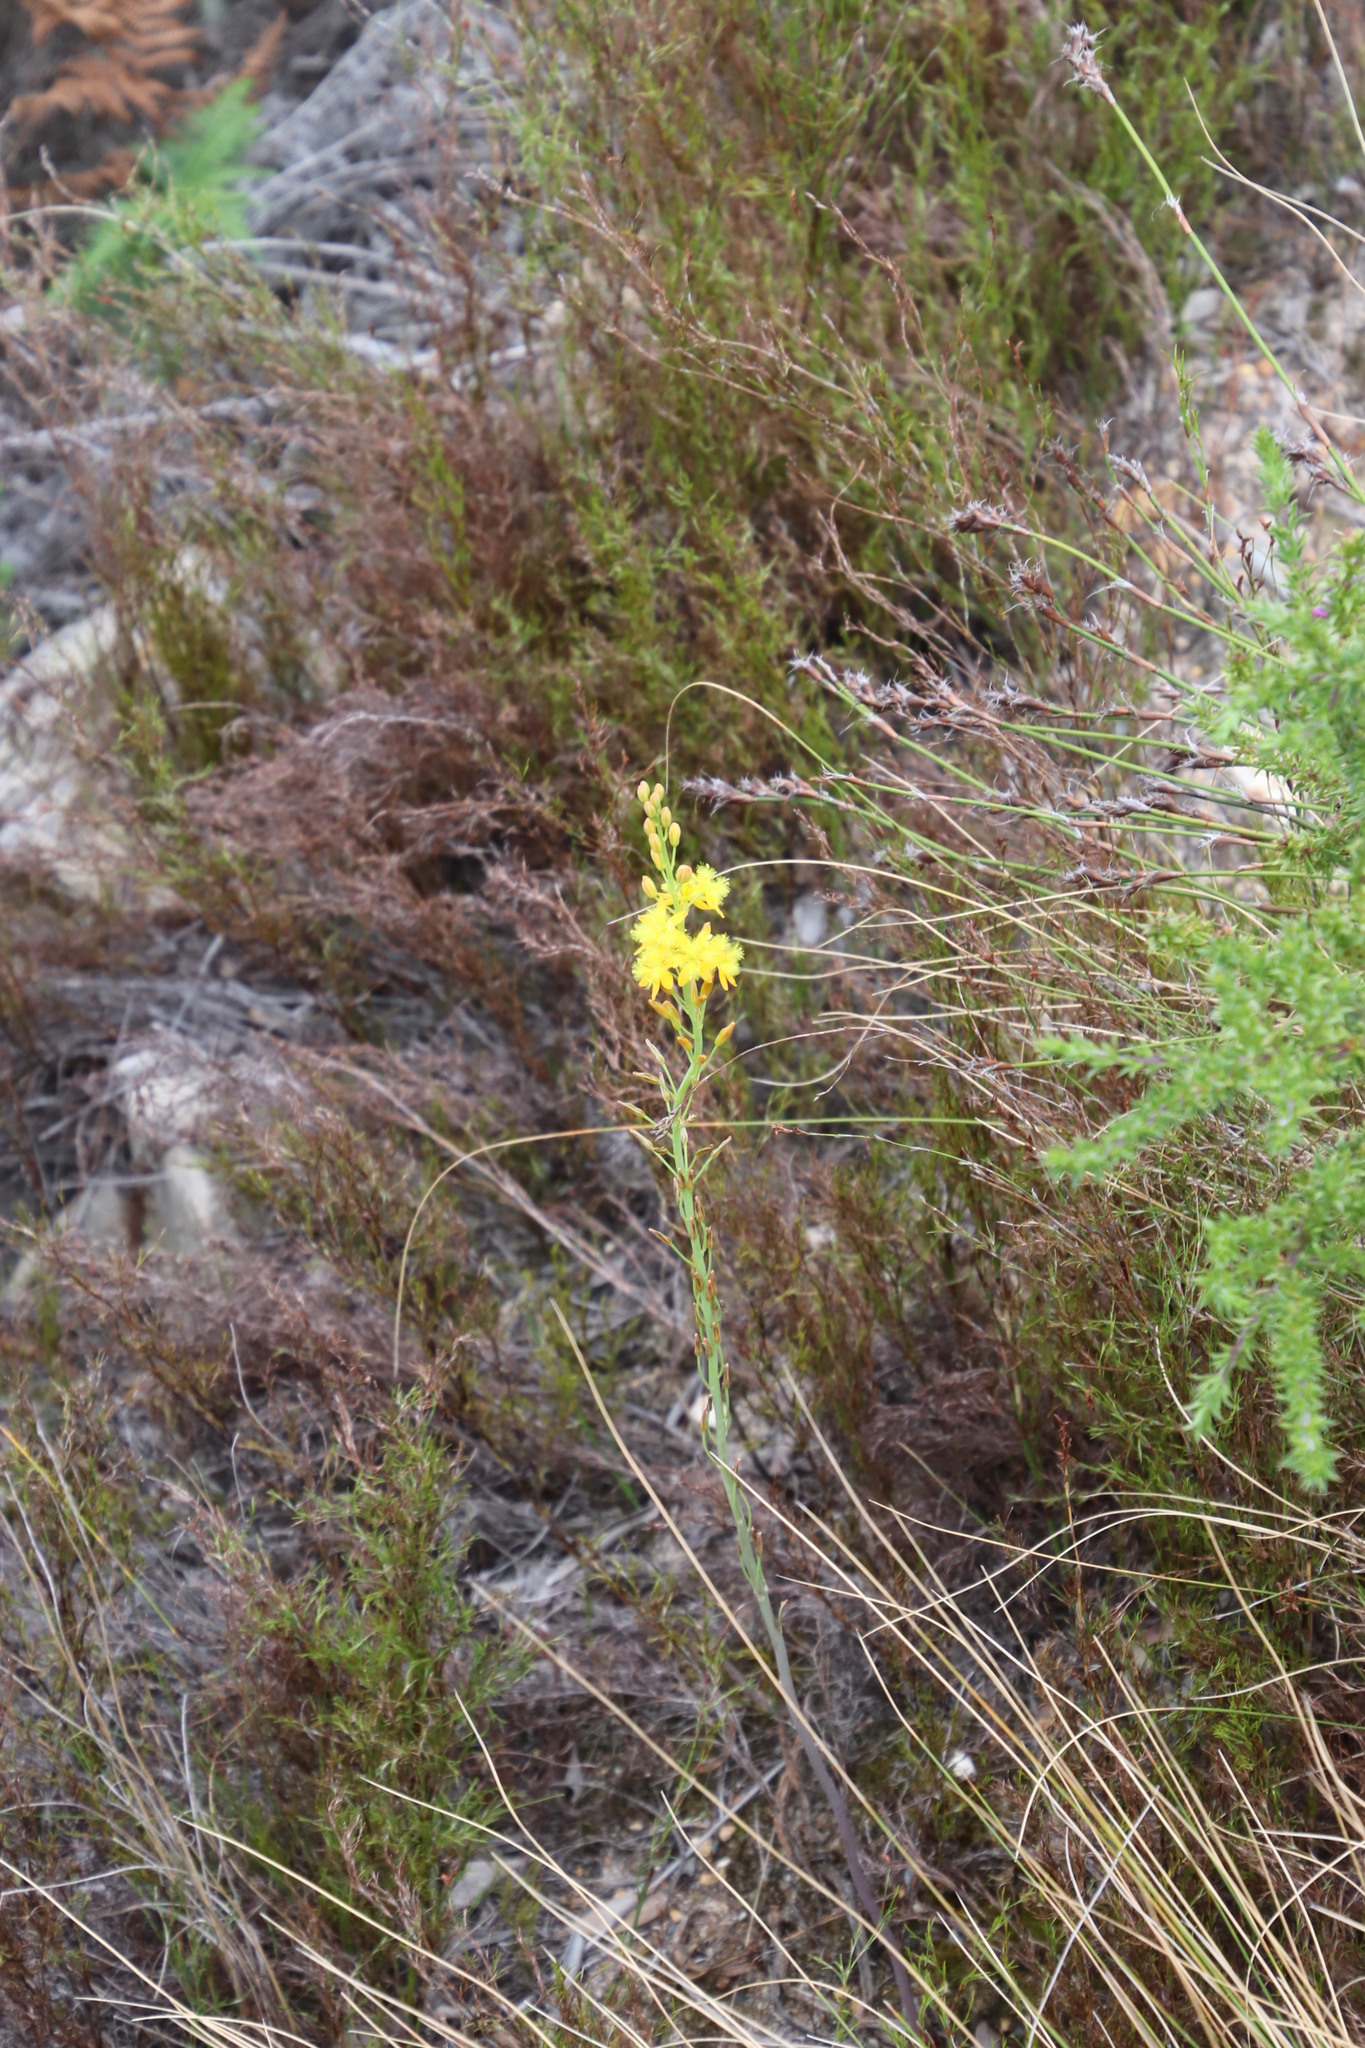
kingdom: Plantae
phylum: Tracheophyta
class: Liliopsida
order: Asparagales
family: Asphodelaceae
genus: Bulbine
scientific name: Bulbine cepacea
